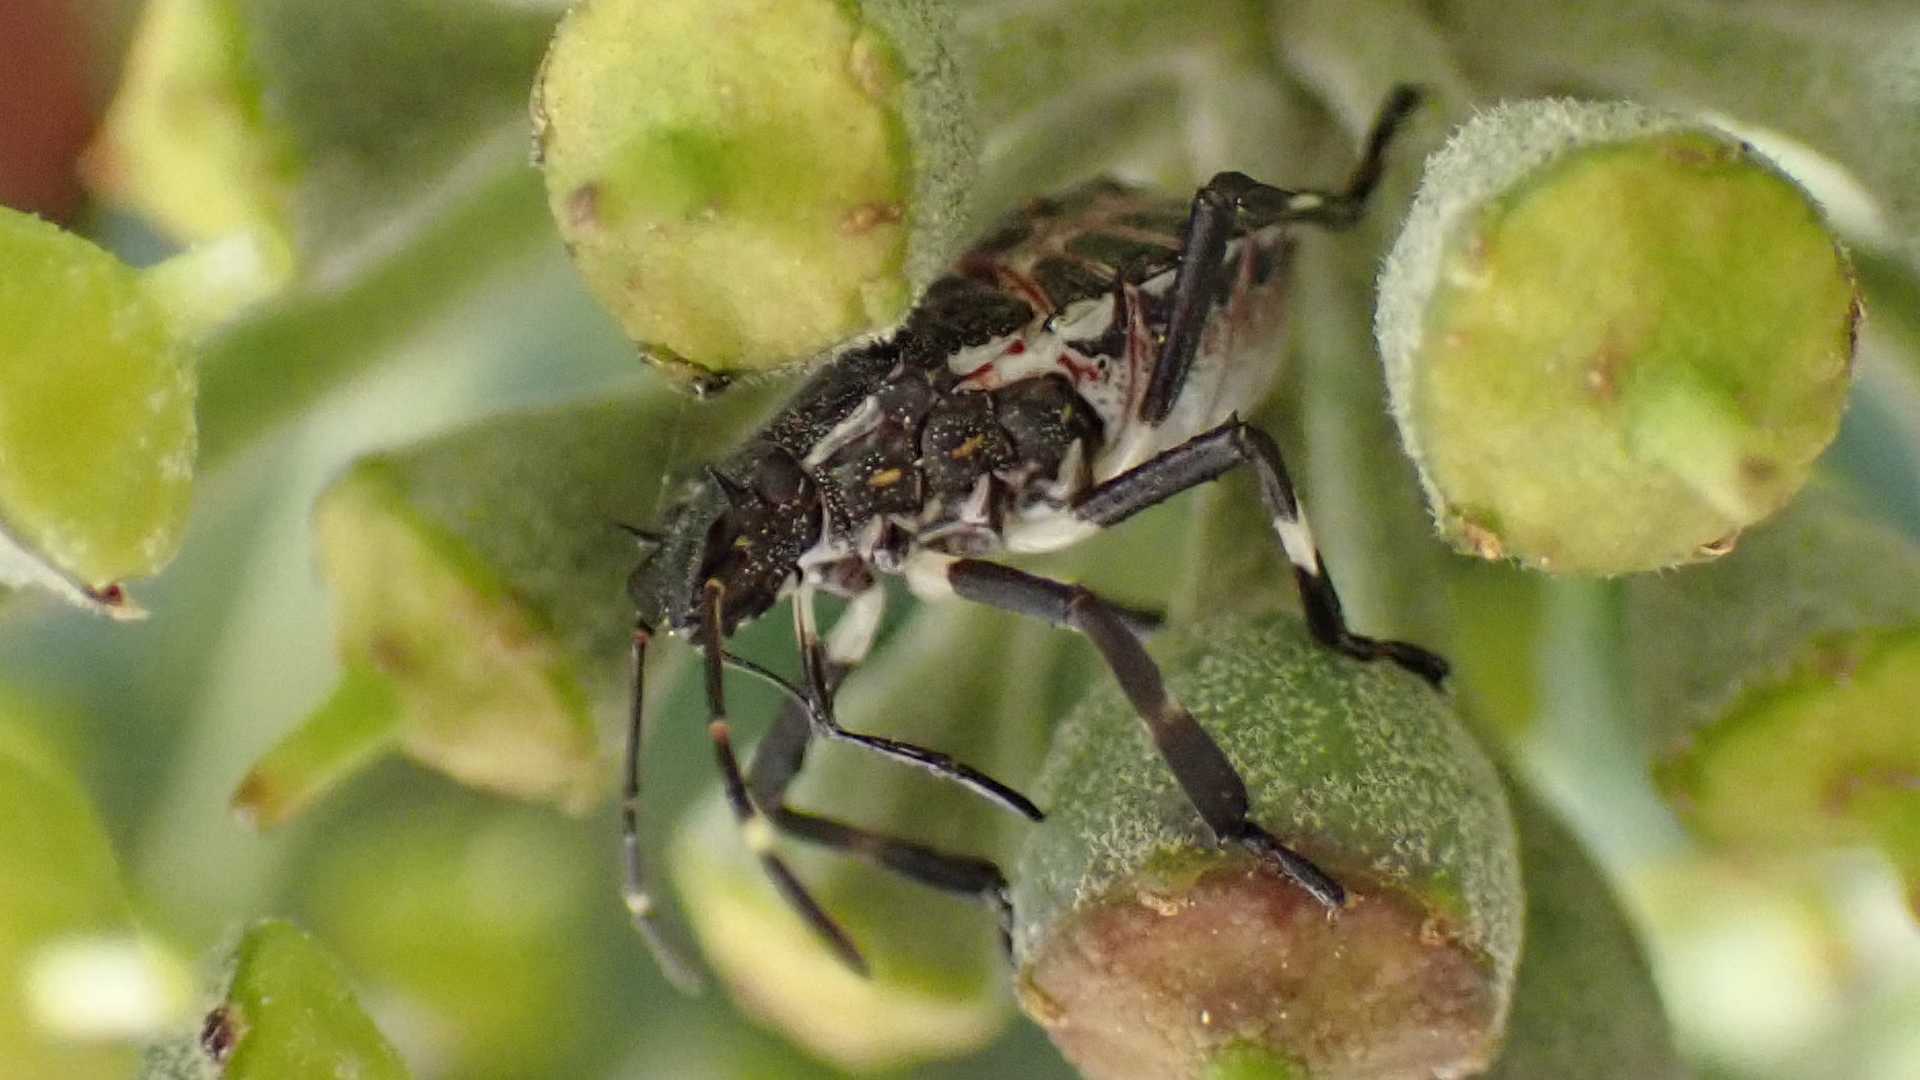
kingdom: Animalia
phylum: Arthropoda
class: Insecta
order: Hemiptera
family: Pentatomidae
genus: Halyomorpha
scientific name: Halyomorpha halys
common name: Brown marmorated stink bug
